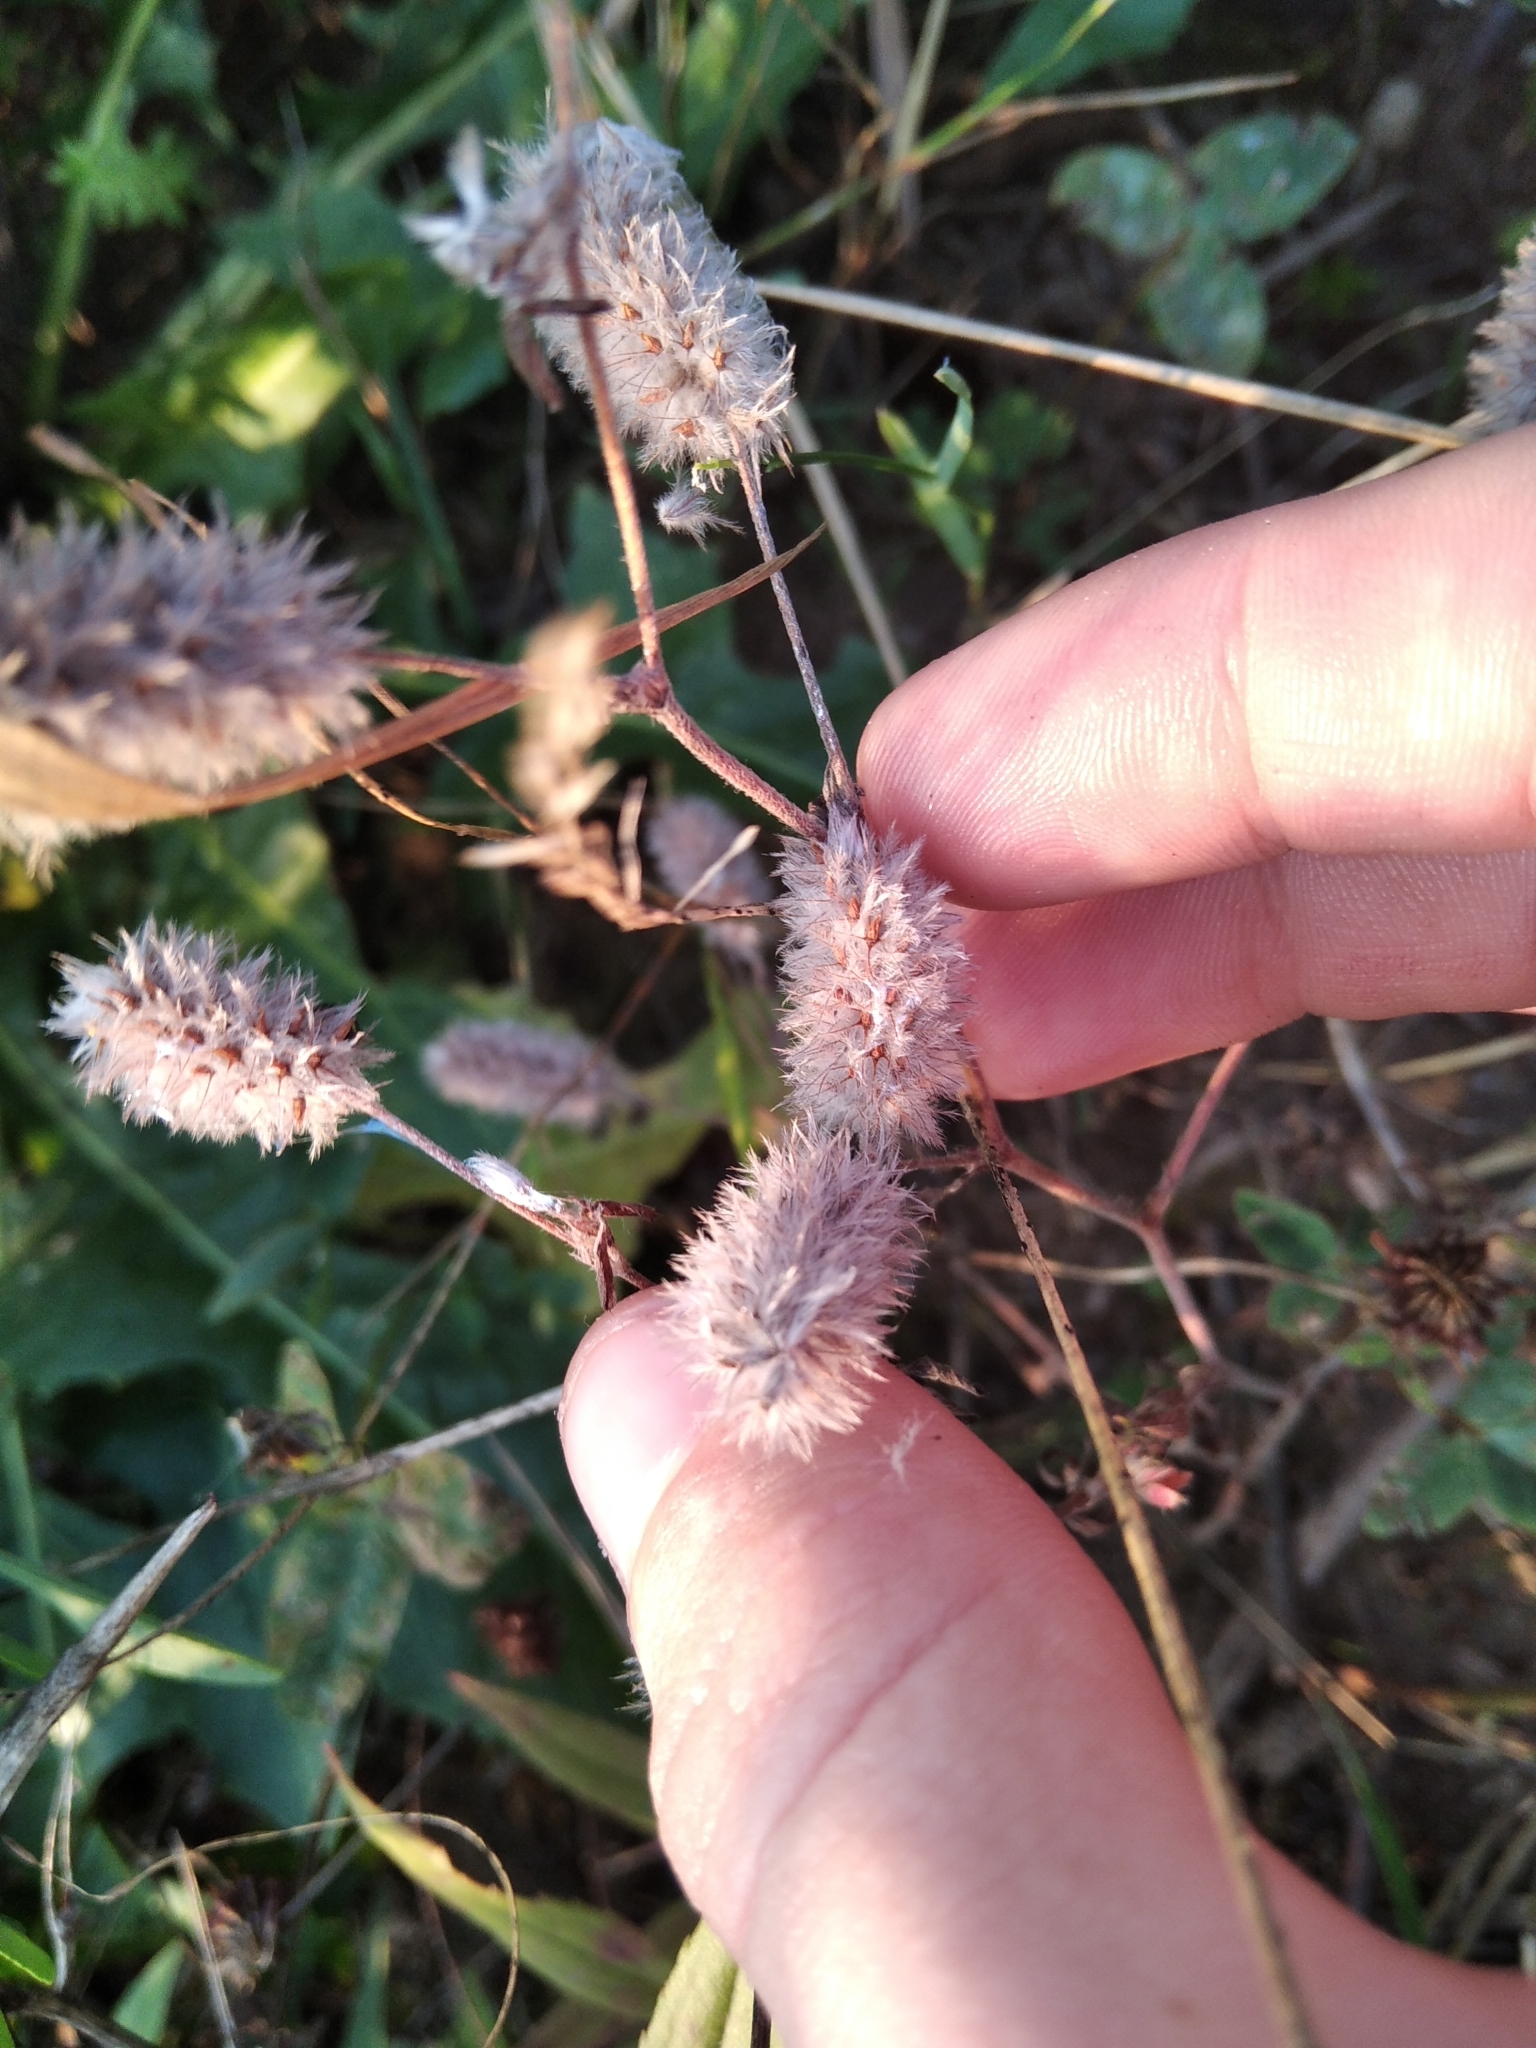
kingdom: Plantae
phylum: Tracheophyta
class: Magnoliopsida
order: Fabales
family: Fabaceae
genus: Trifolium
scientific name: Trifolium arvense
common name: Hare's-foot clover
